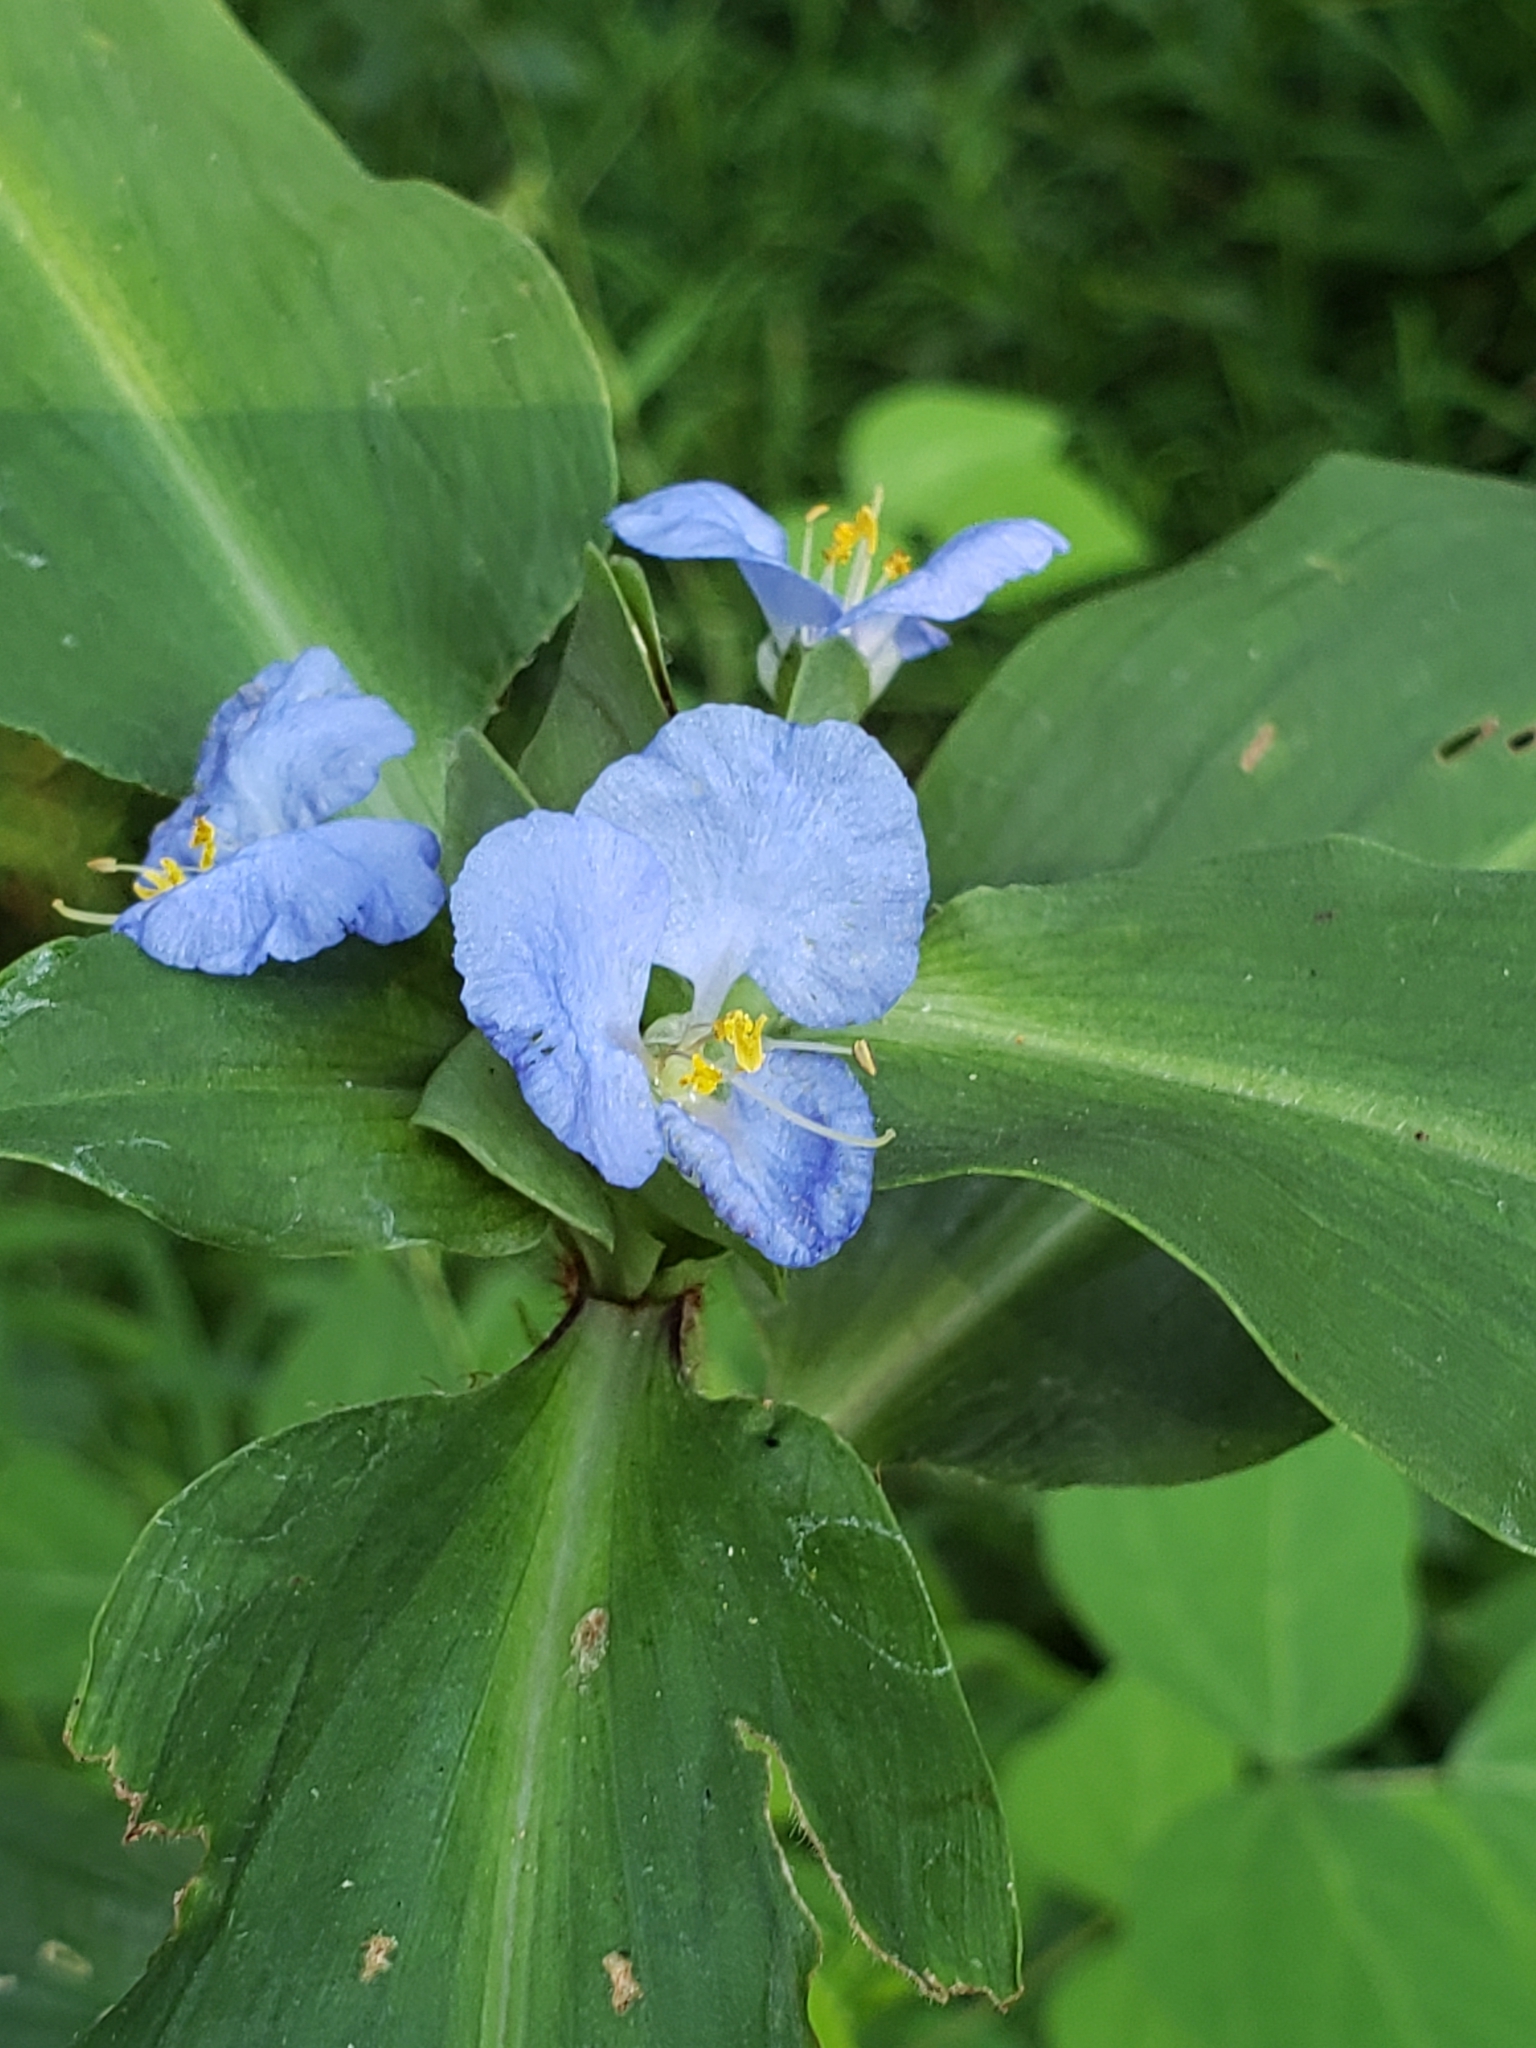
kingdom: Plantae
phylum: Tracheophyta
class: Liliopsida
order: Commelinales
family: Commelinaceae
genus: Commelina
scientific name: Commelina virginica
